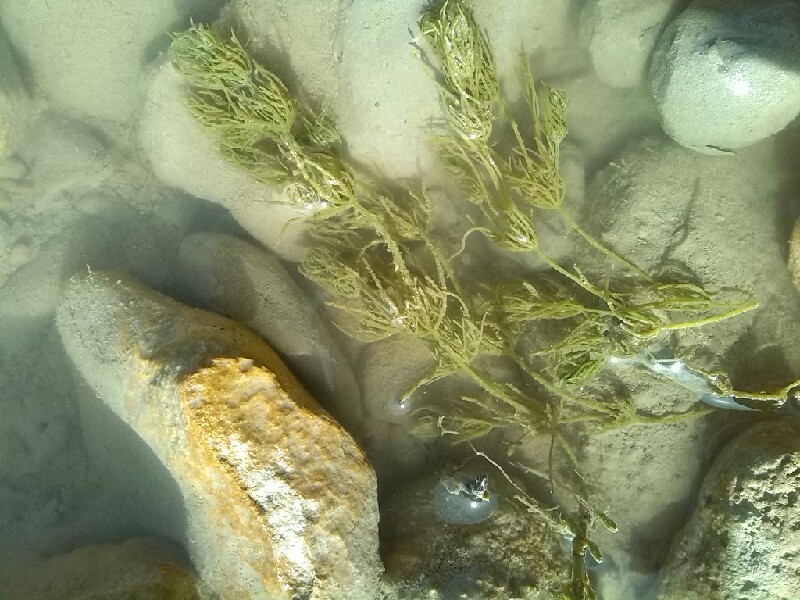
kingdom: Plantae
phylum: Charophyta
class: Charophyceae
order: Charales
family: Characeae
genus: Chara
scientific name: Chara vulgaris
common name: Common stonewort
